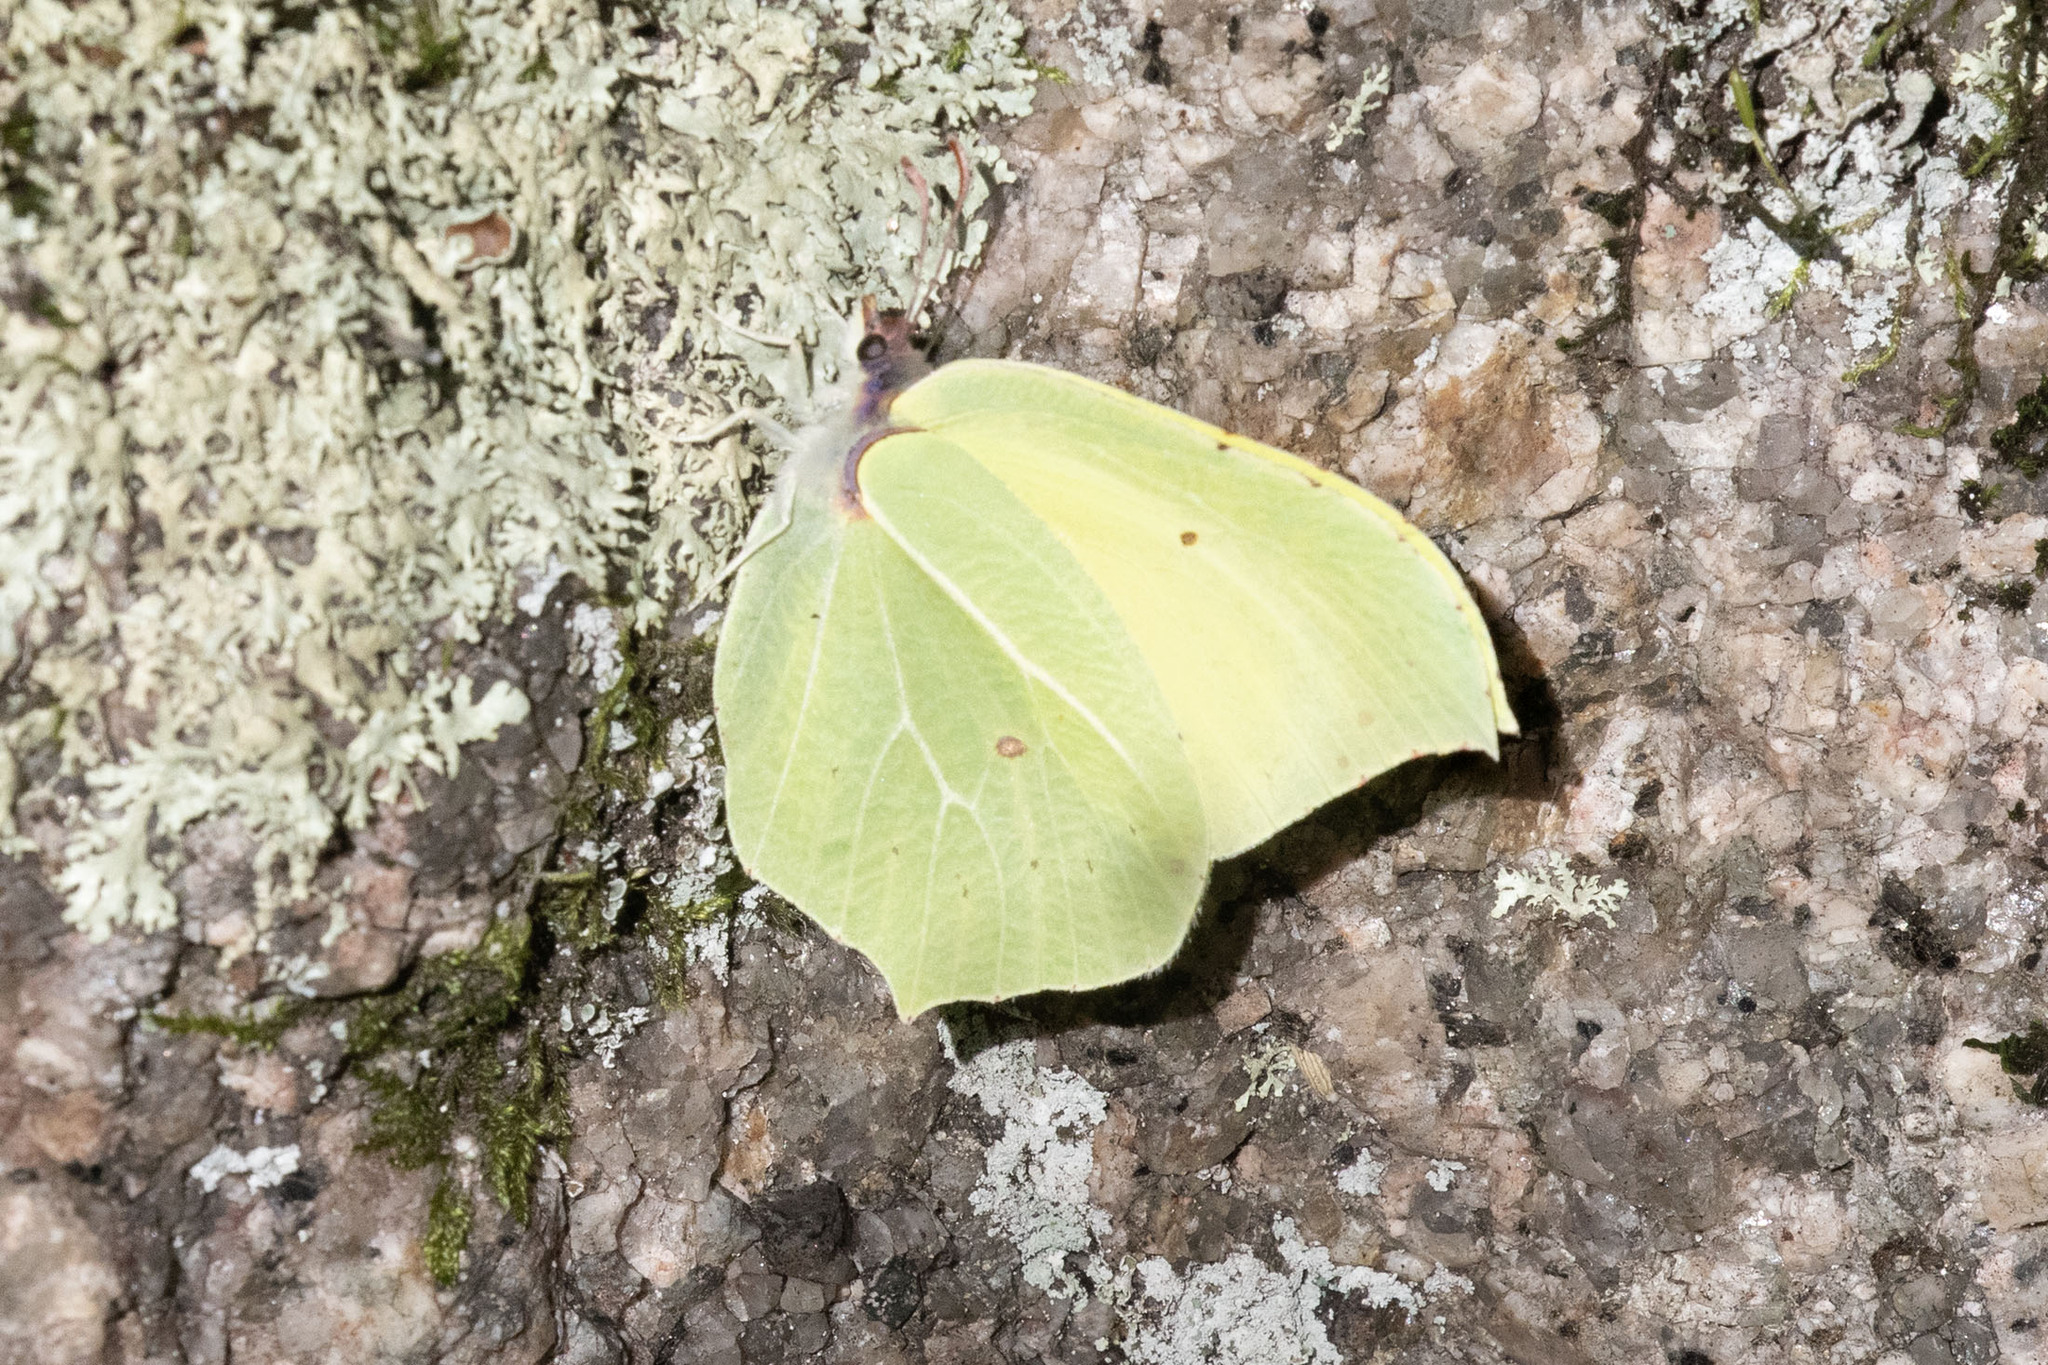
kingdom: Animalia
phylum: Arthropoda
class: Insecta
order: Lepidoptera
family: Pieridae
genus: Gonepteryx
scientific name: Gonepteryx rhamni
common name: Brimstone
